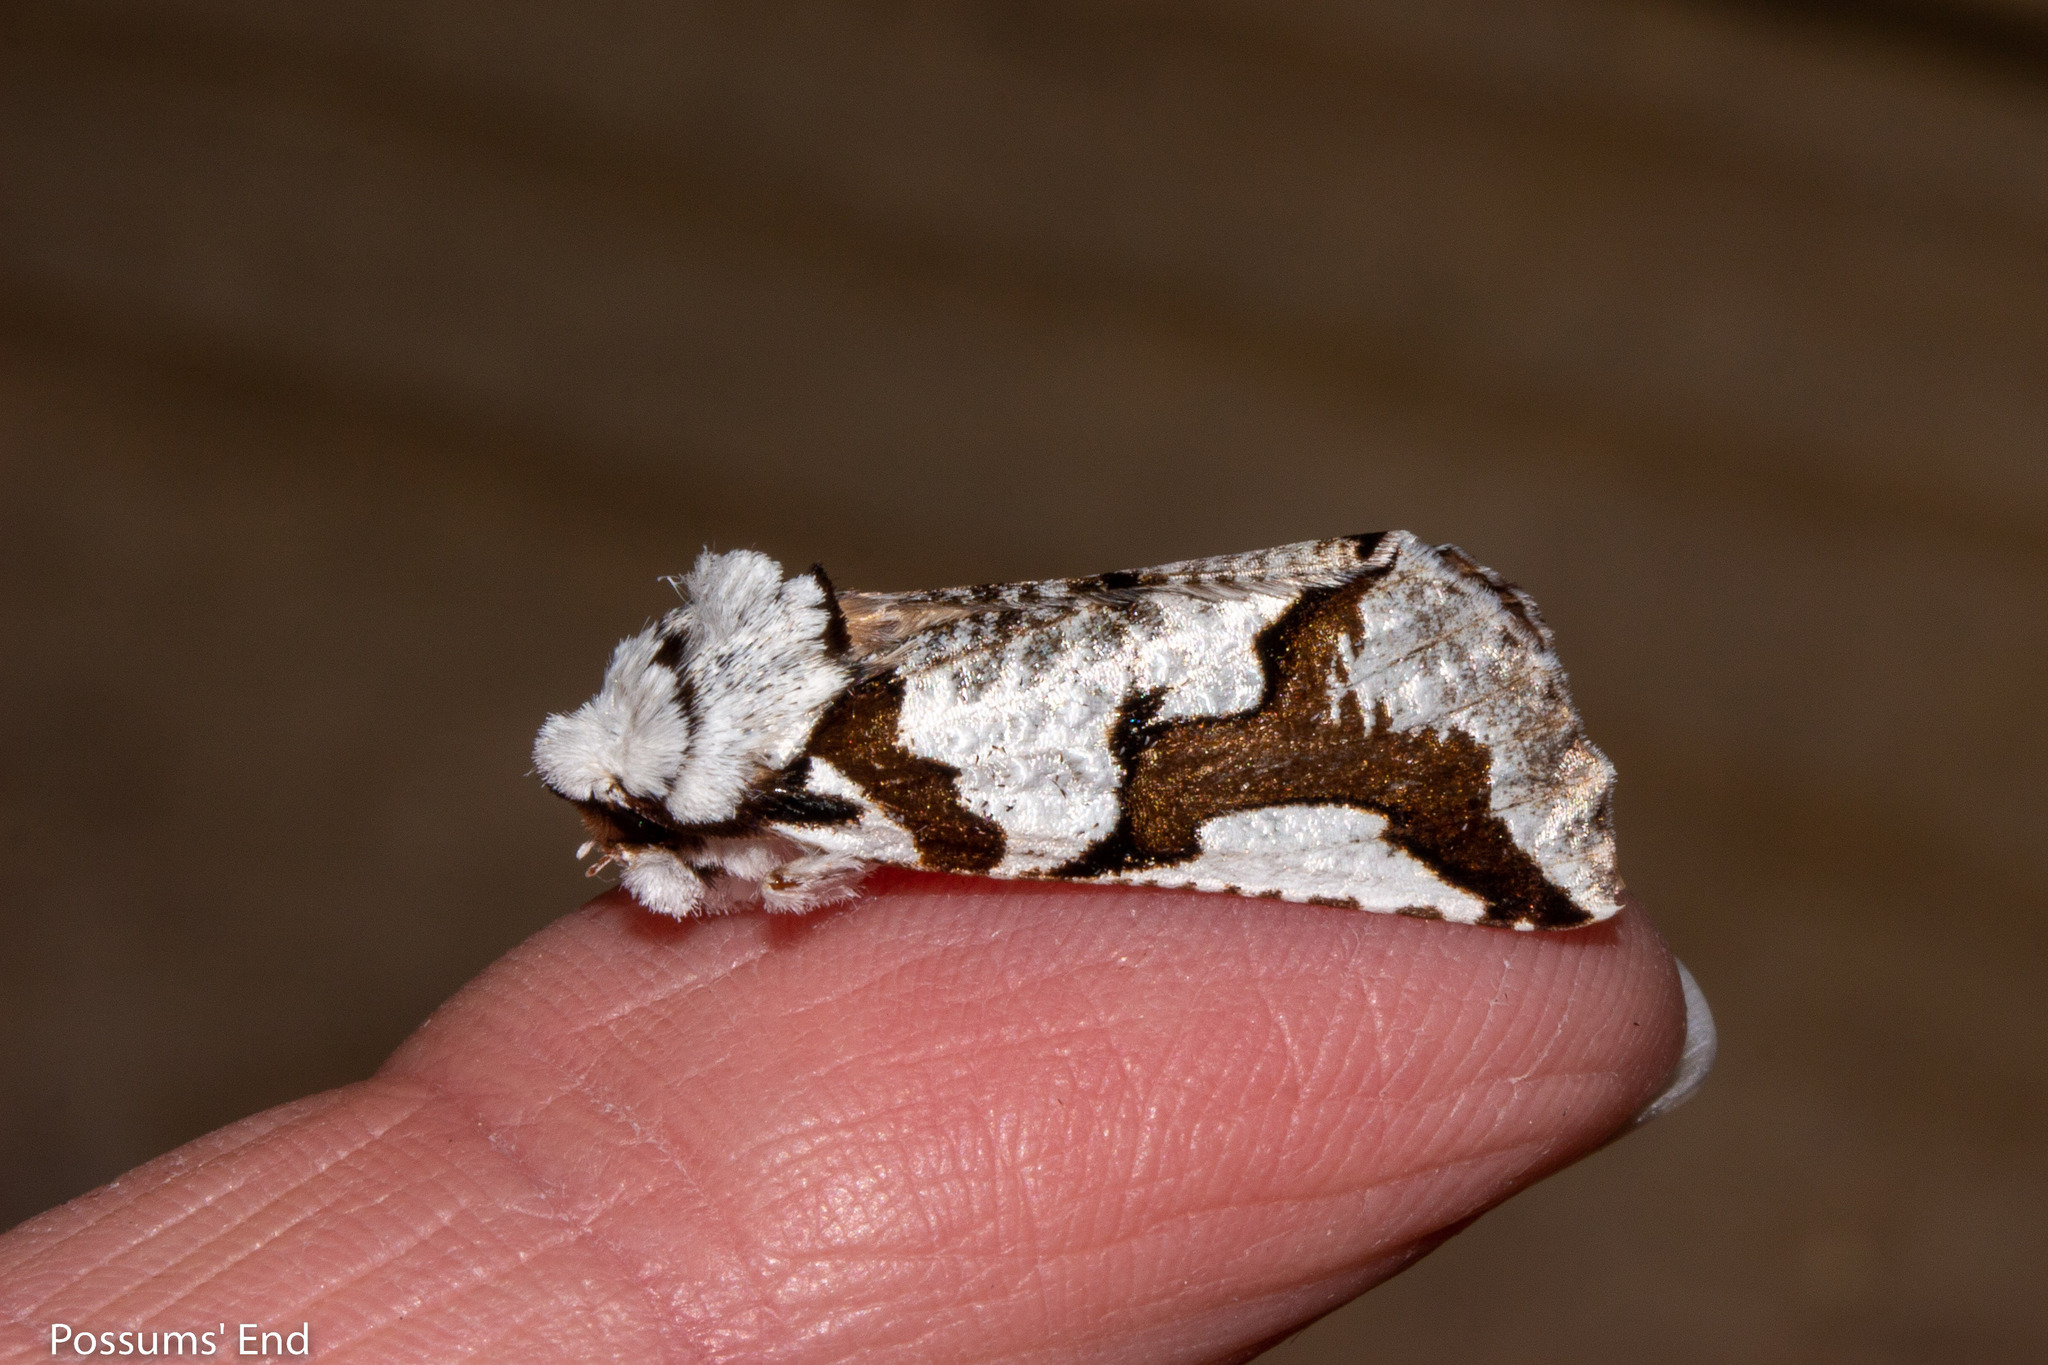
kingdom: Animalia
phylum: Arthropoda
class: Insecta
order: Lepidoptera
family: Geometridae
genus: Declana
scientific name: Declana
